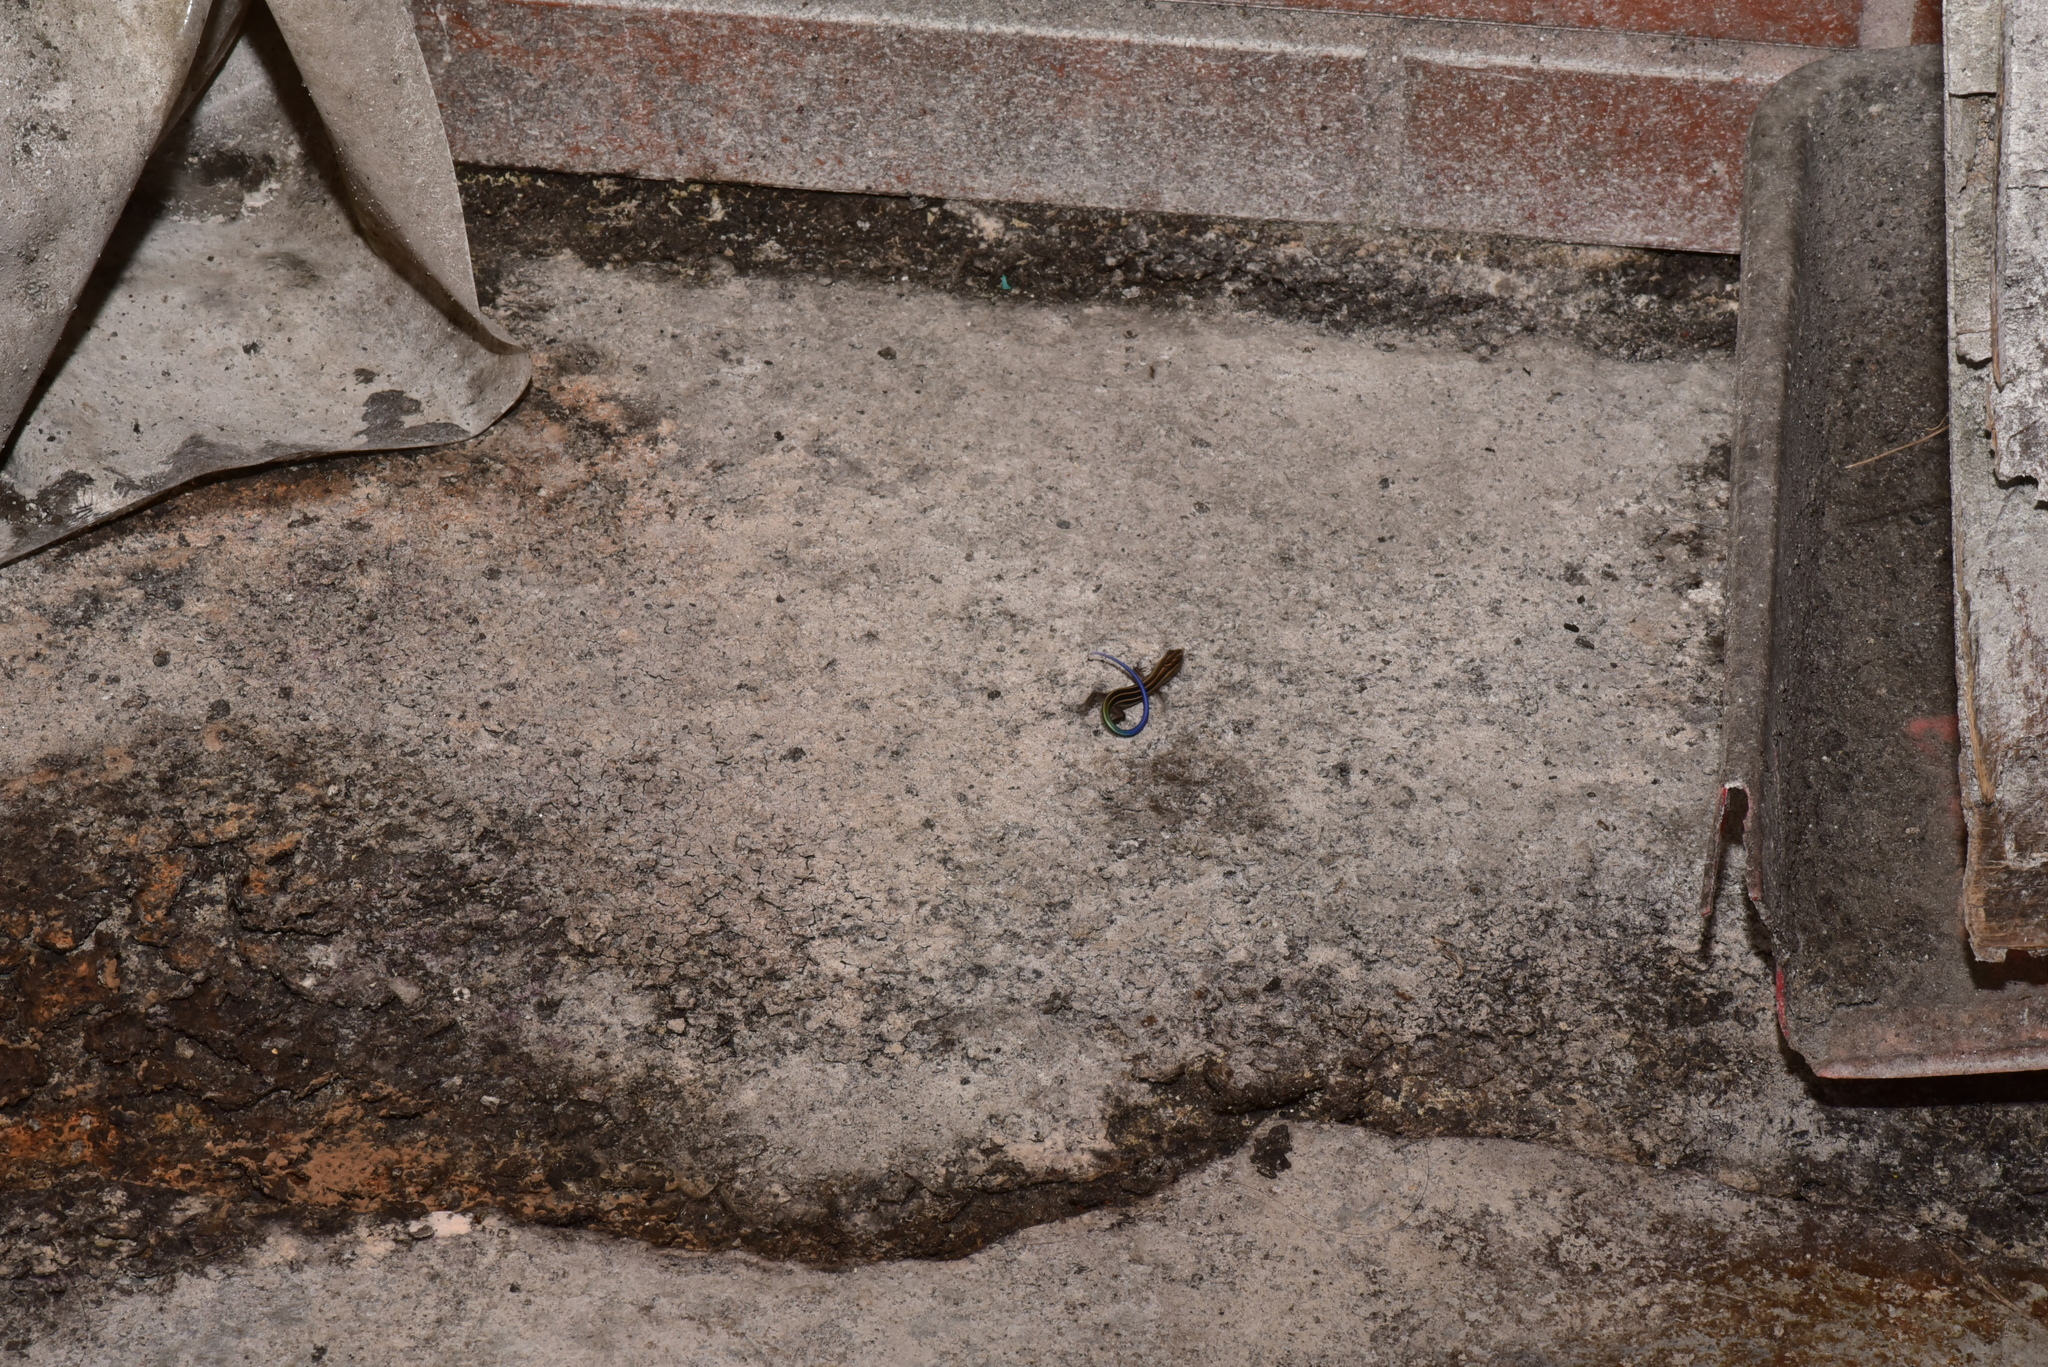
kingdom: Animalia
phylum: Chordata
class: Squamata
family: Scincidae
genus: Plestiodon
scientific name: Plestiodon elegans
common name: Shanghai elegant skink
